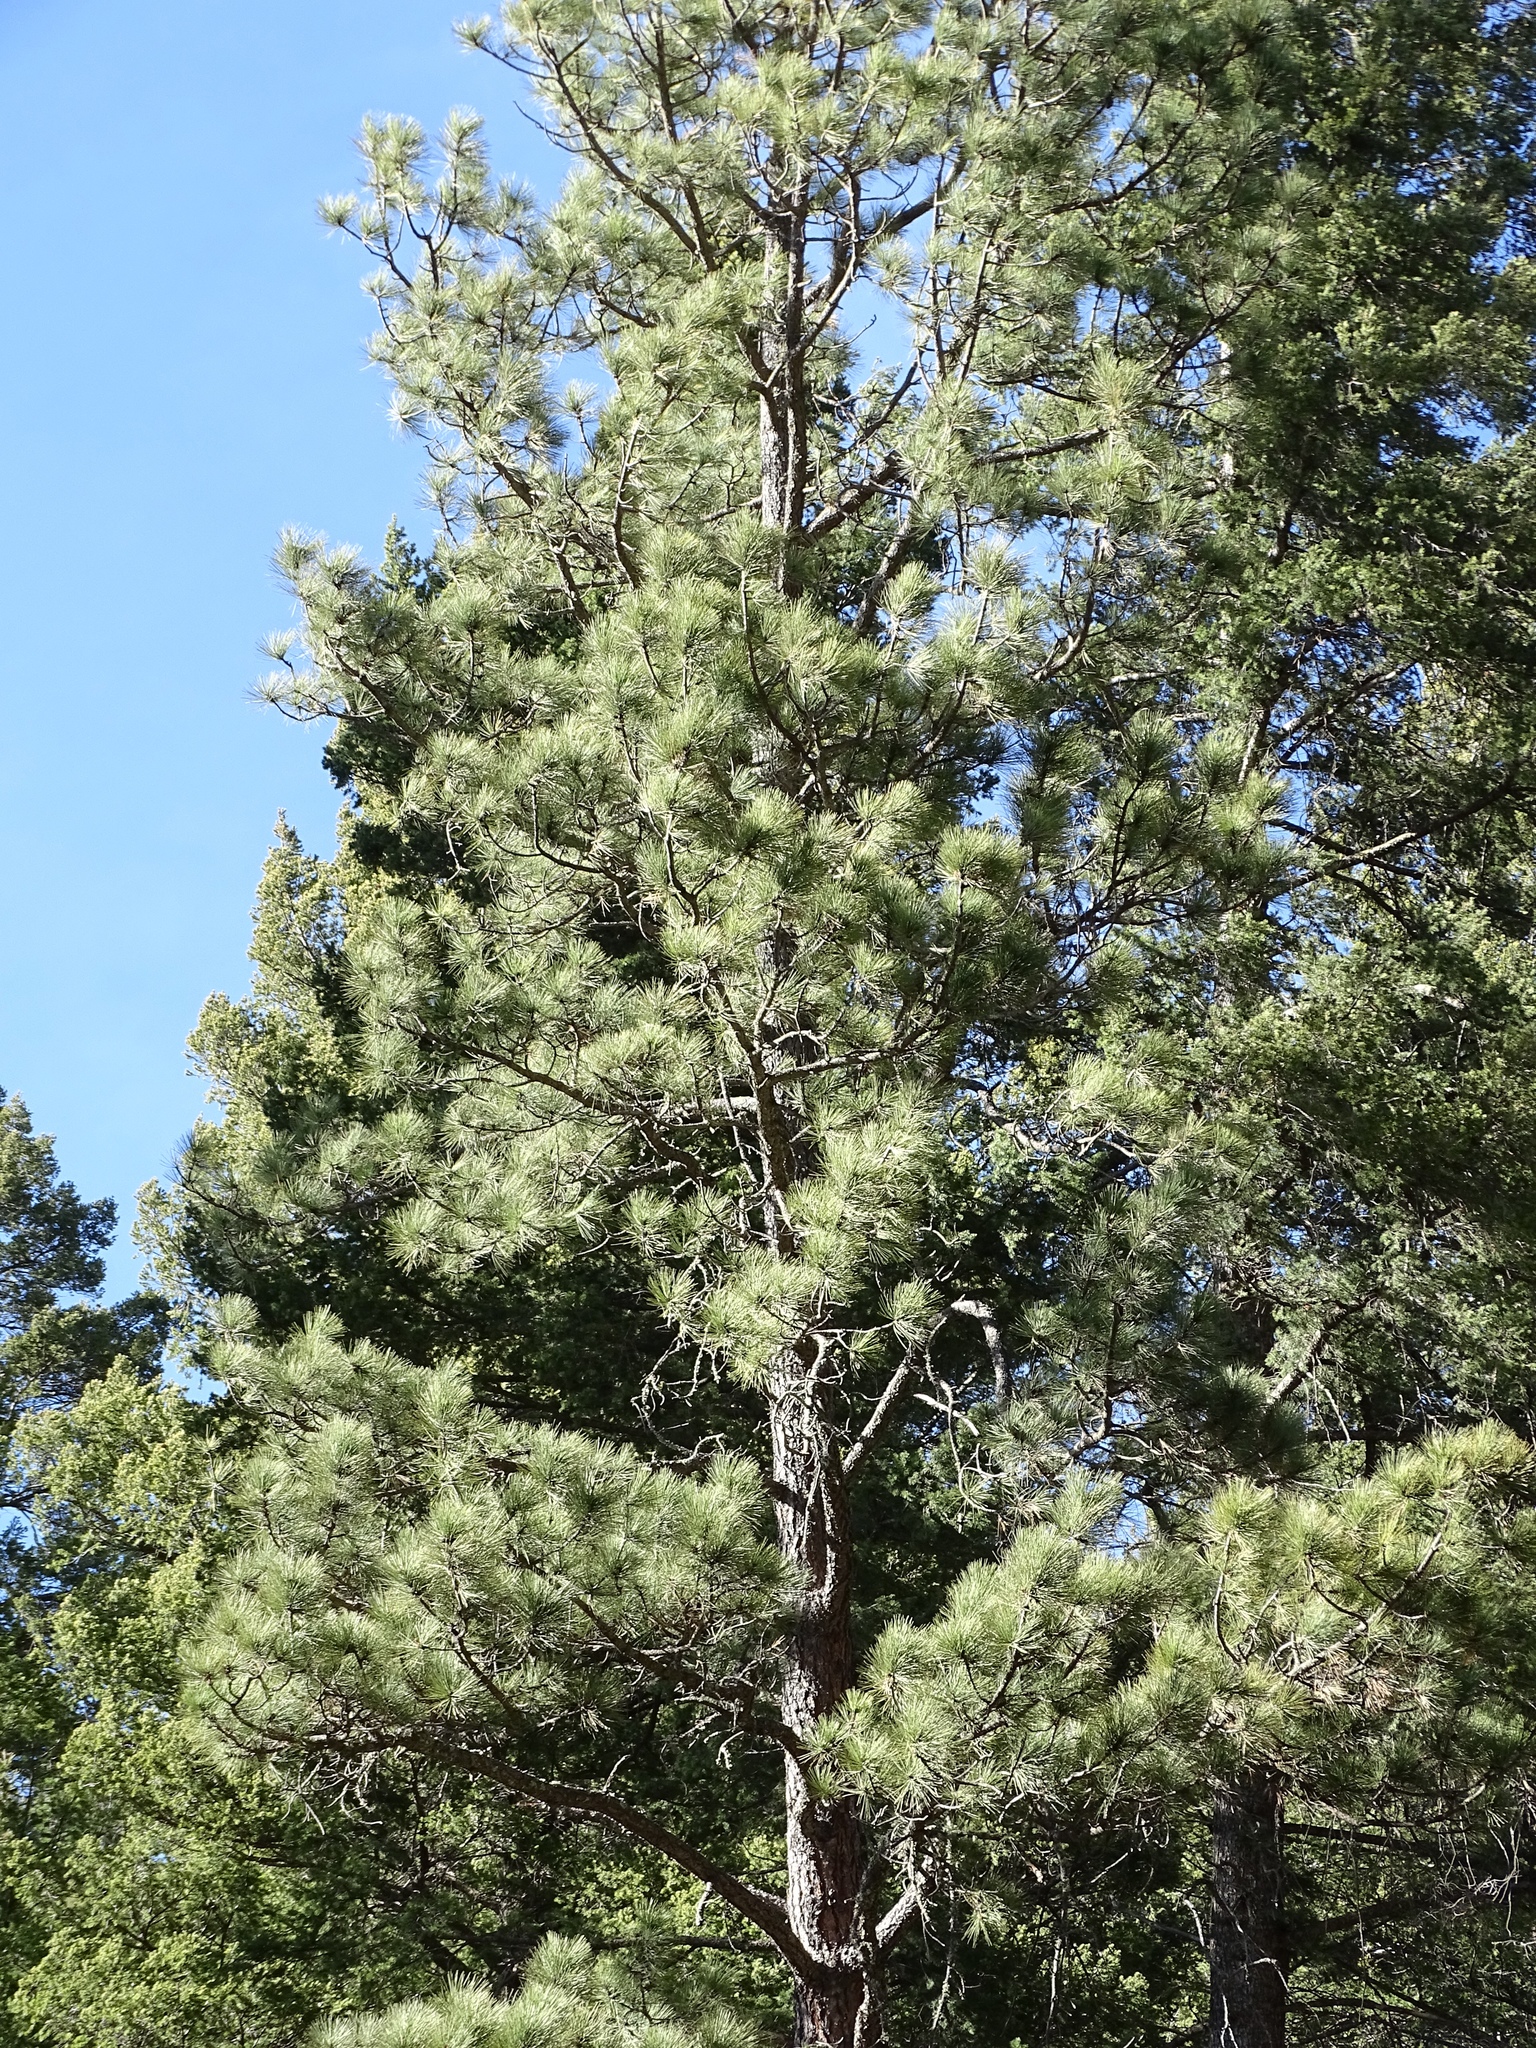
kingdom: Plantae
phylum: Tracheophyta
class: Pinopsida
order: Pinales
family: Pinaceae
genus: Pinus
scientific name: Pinus strobiformis
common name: Southwestern white pine
